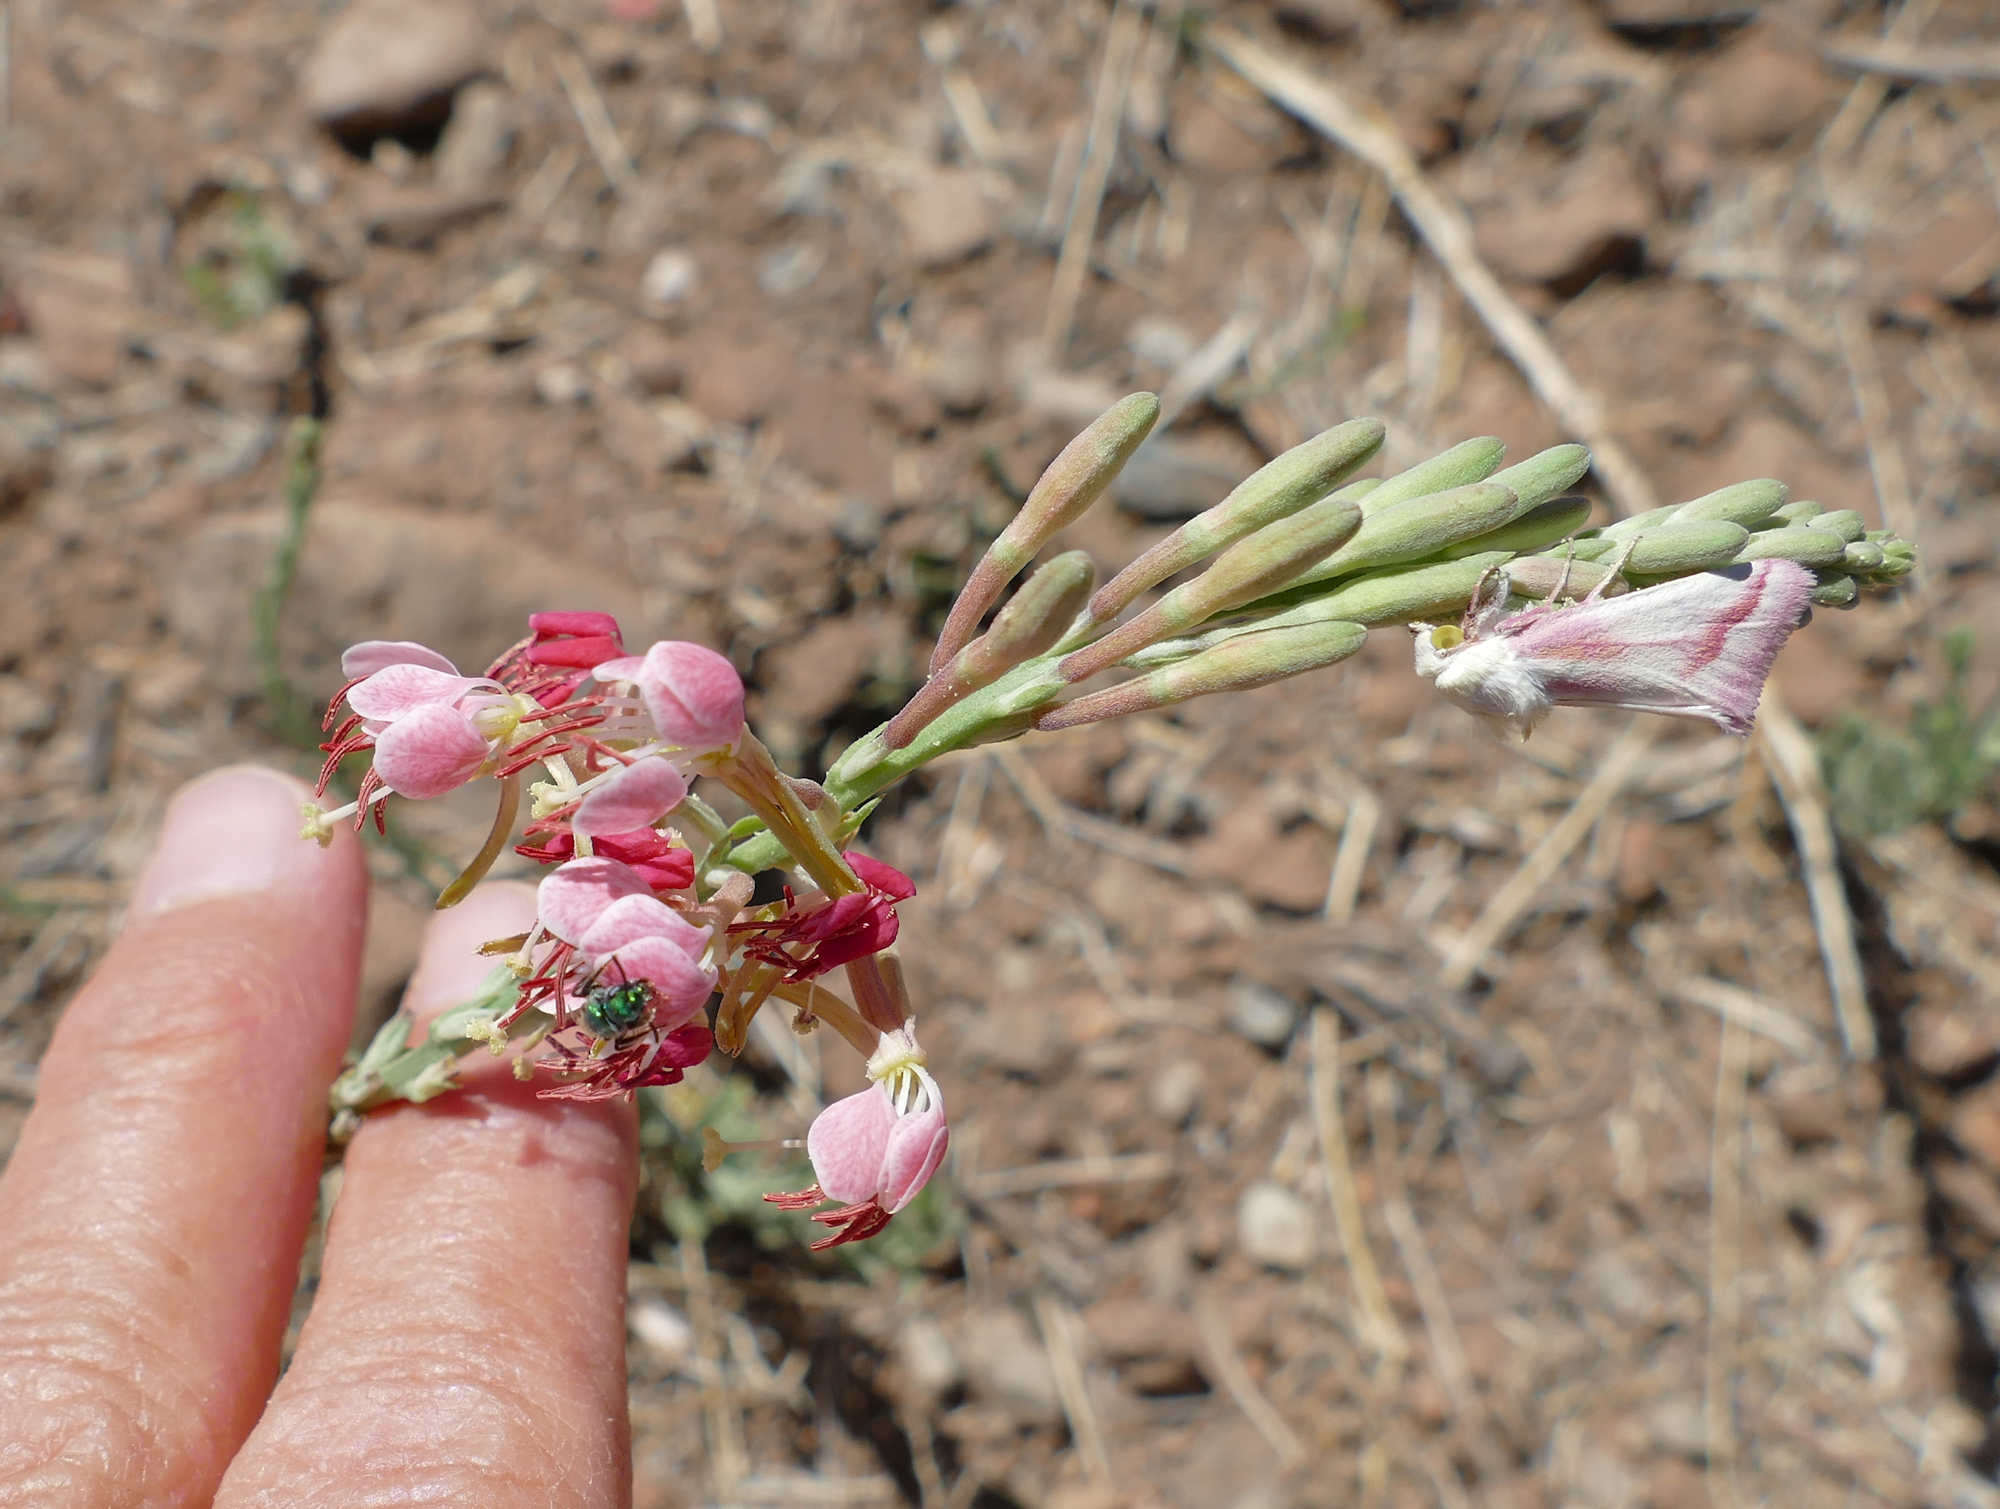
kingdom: Animalia
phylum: Arthropoda
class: Insecta
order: Lepidoptera
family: Noctuidae
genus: Schinia
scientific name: Schinia gaurae
